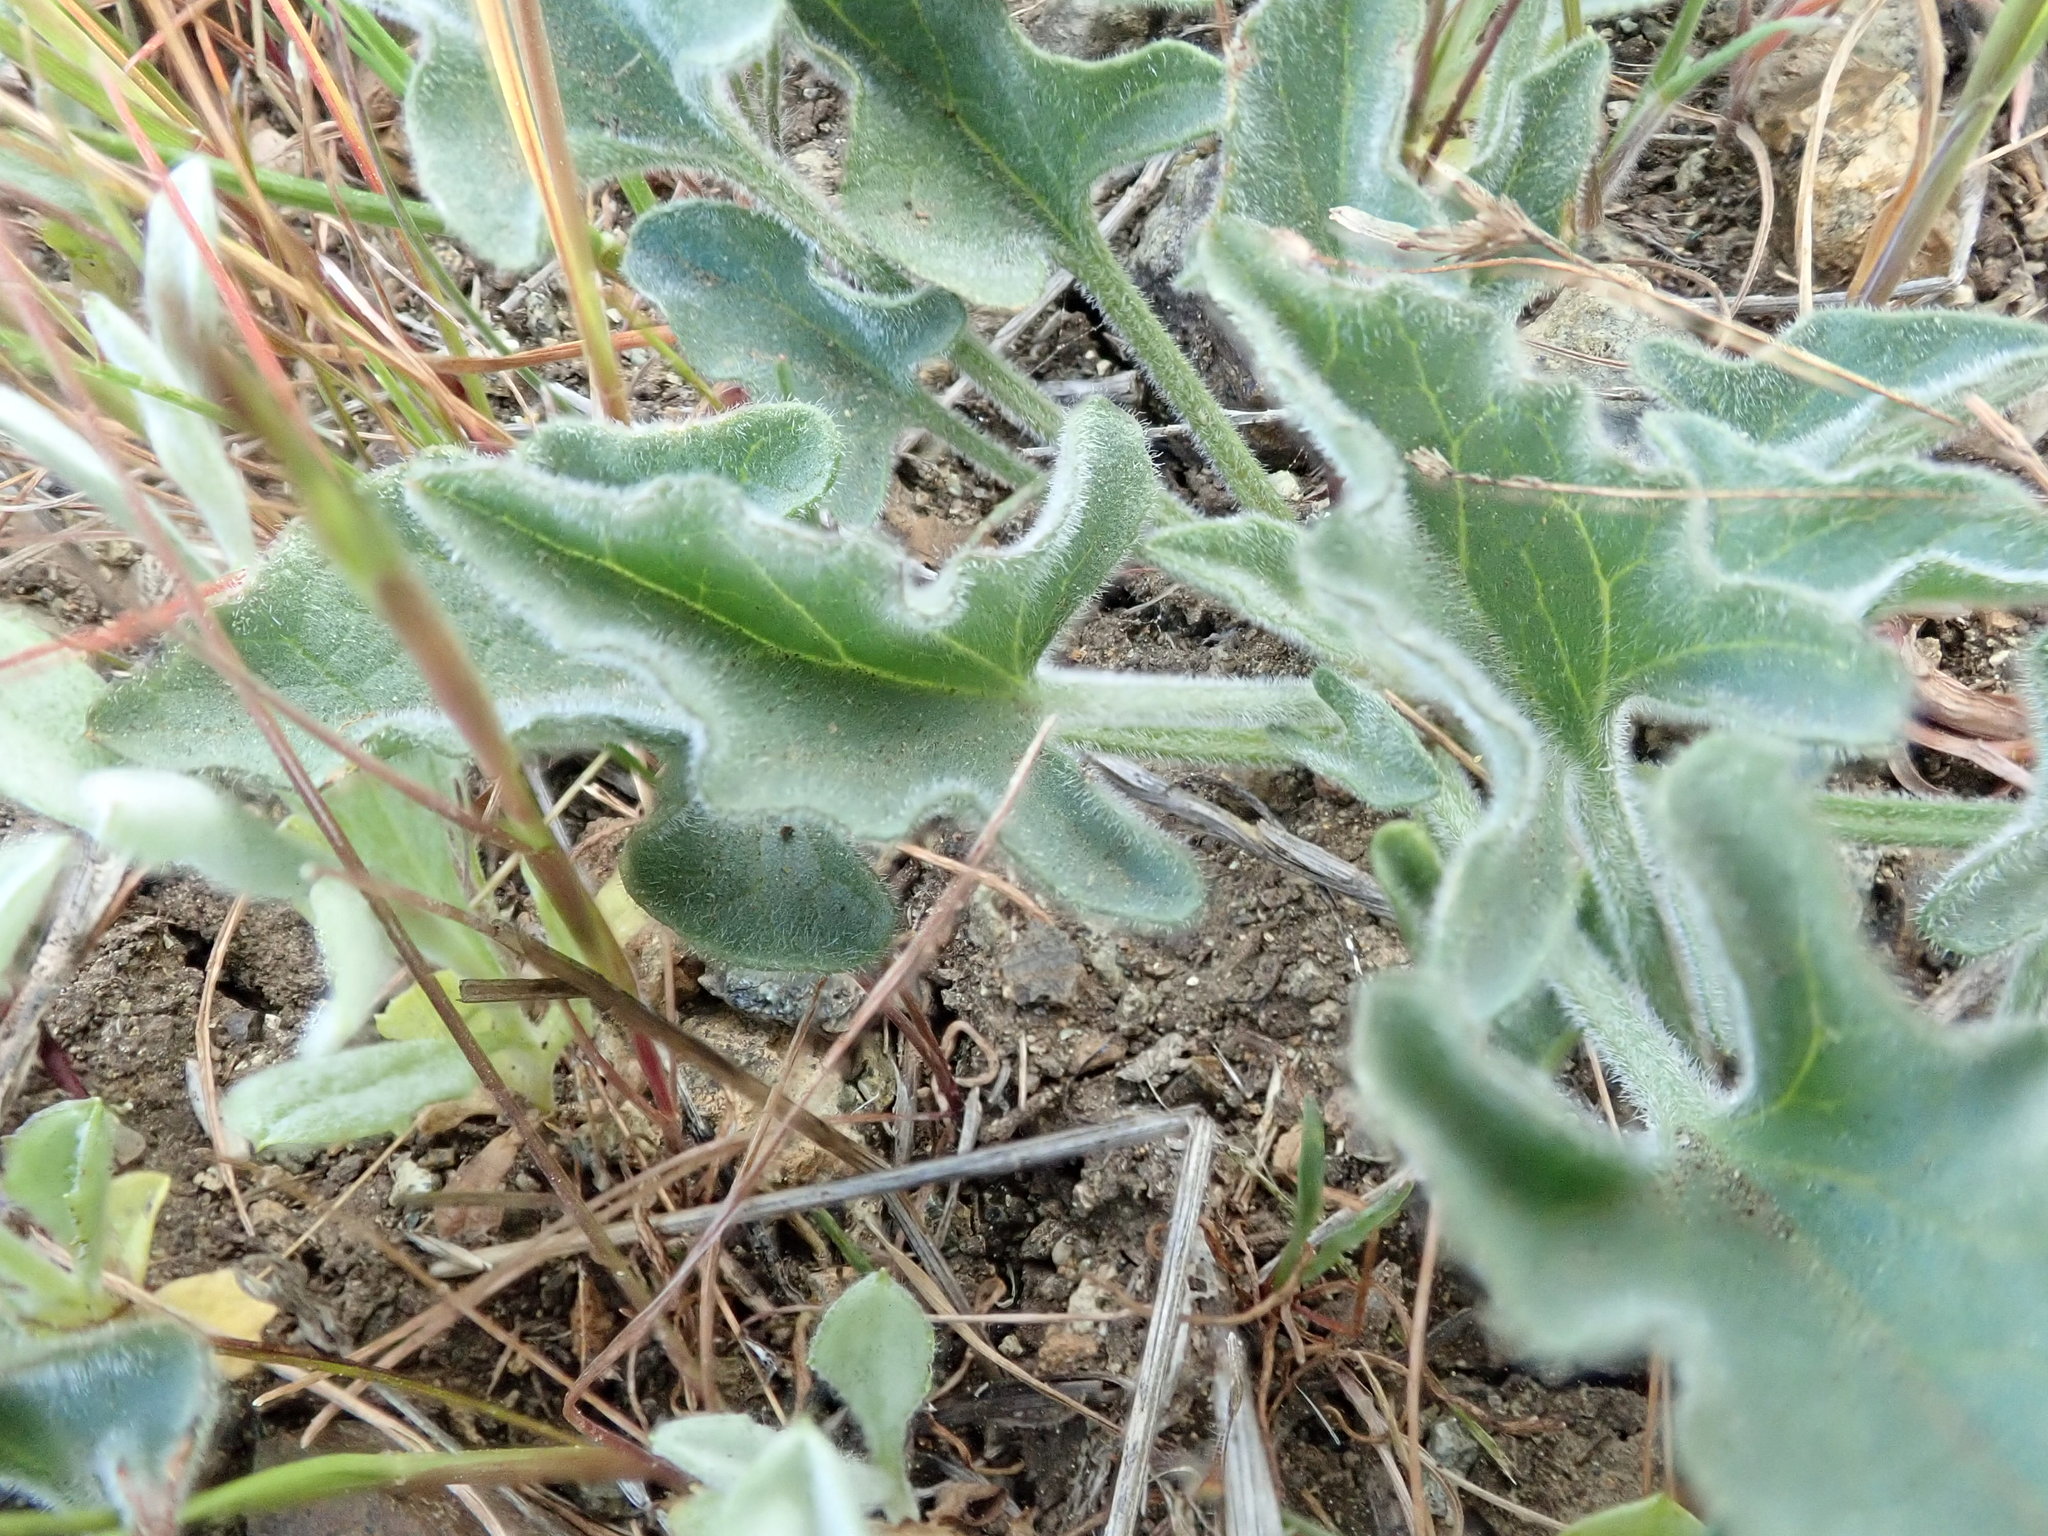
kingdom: Plantae
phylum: Tracheophyta
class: Magnoliopsida
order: Solanales
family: Convolvulaceae
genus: Calystegia
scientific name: Calystegia collina
